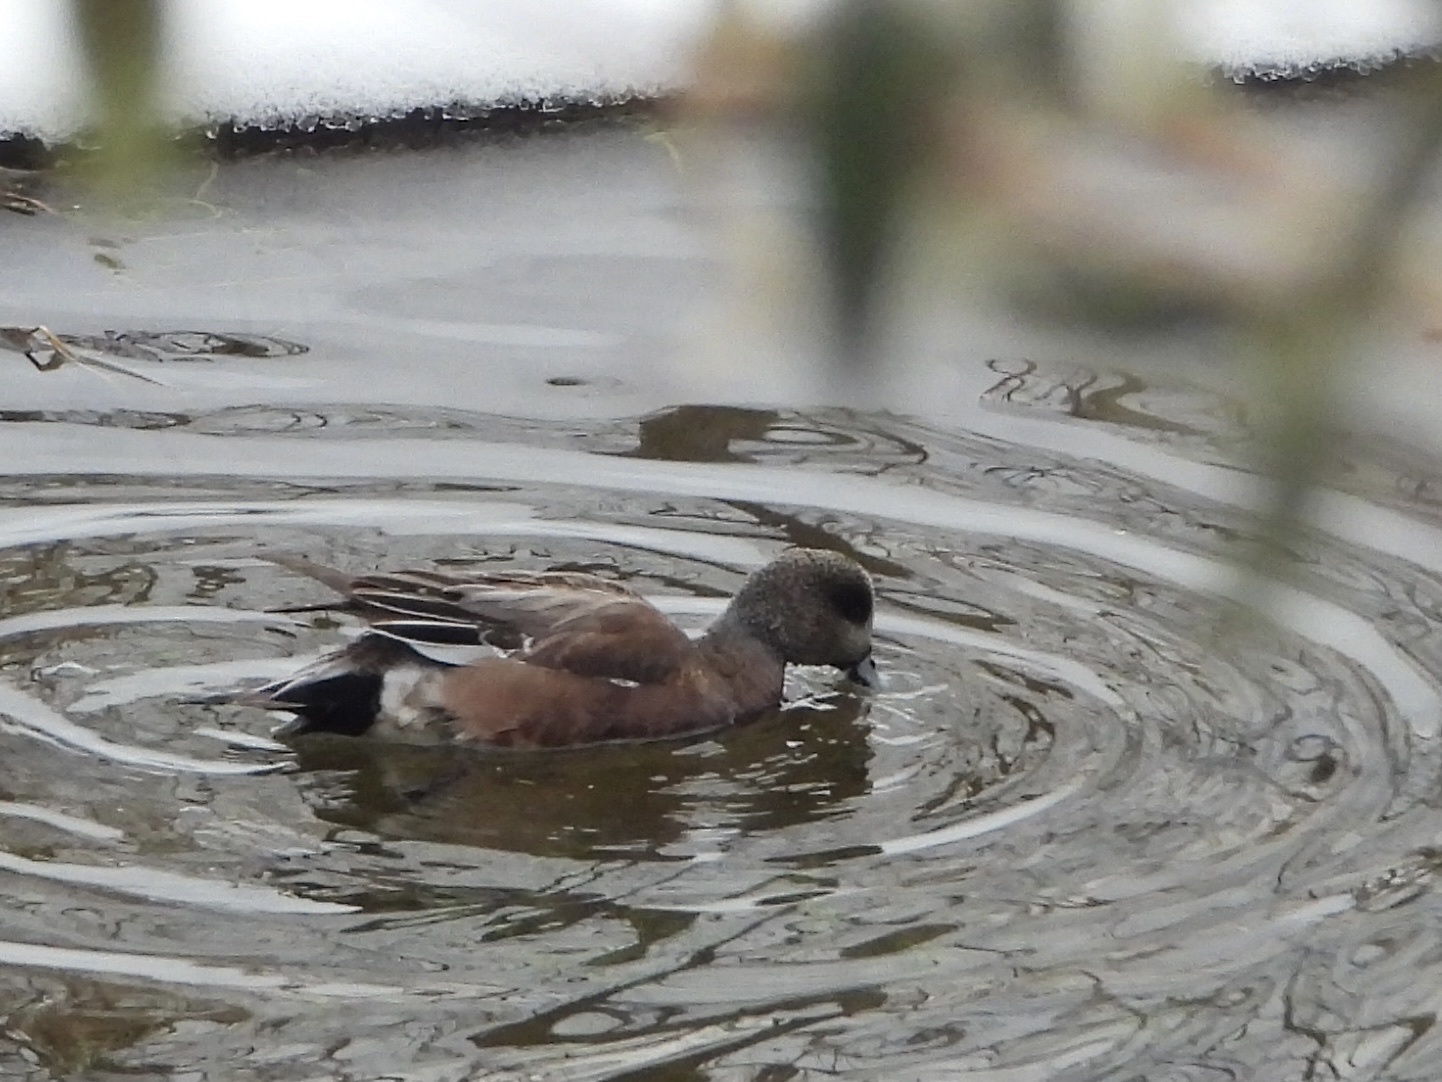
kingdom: Animalia
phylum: Chordata
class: Aves
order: Anseriformes
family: Anatidae
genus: Mareca
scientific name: Mareca americana
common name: American wigeon
